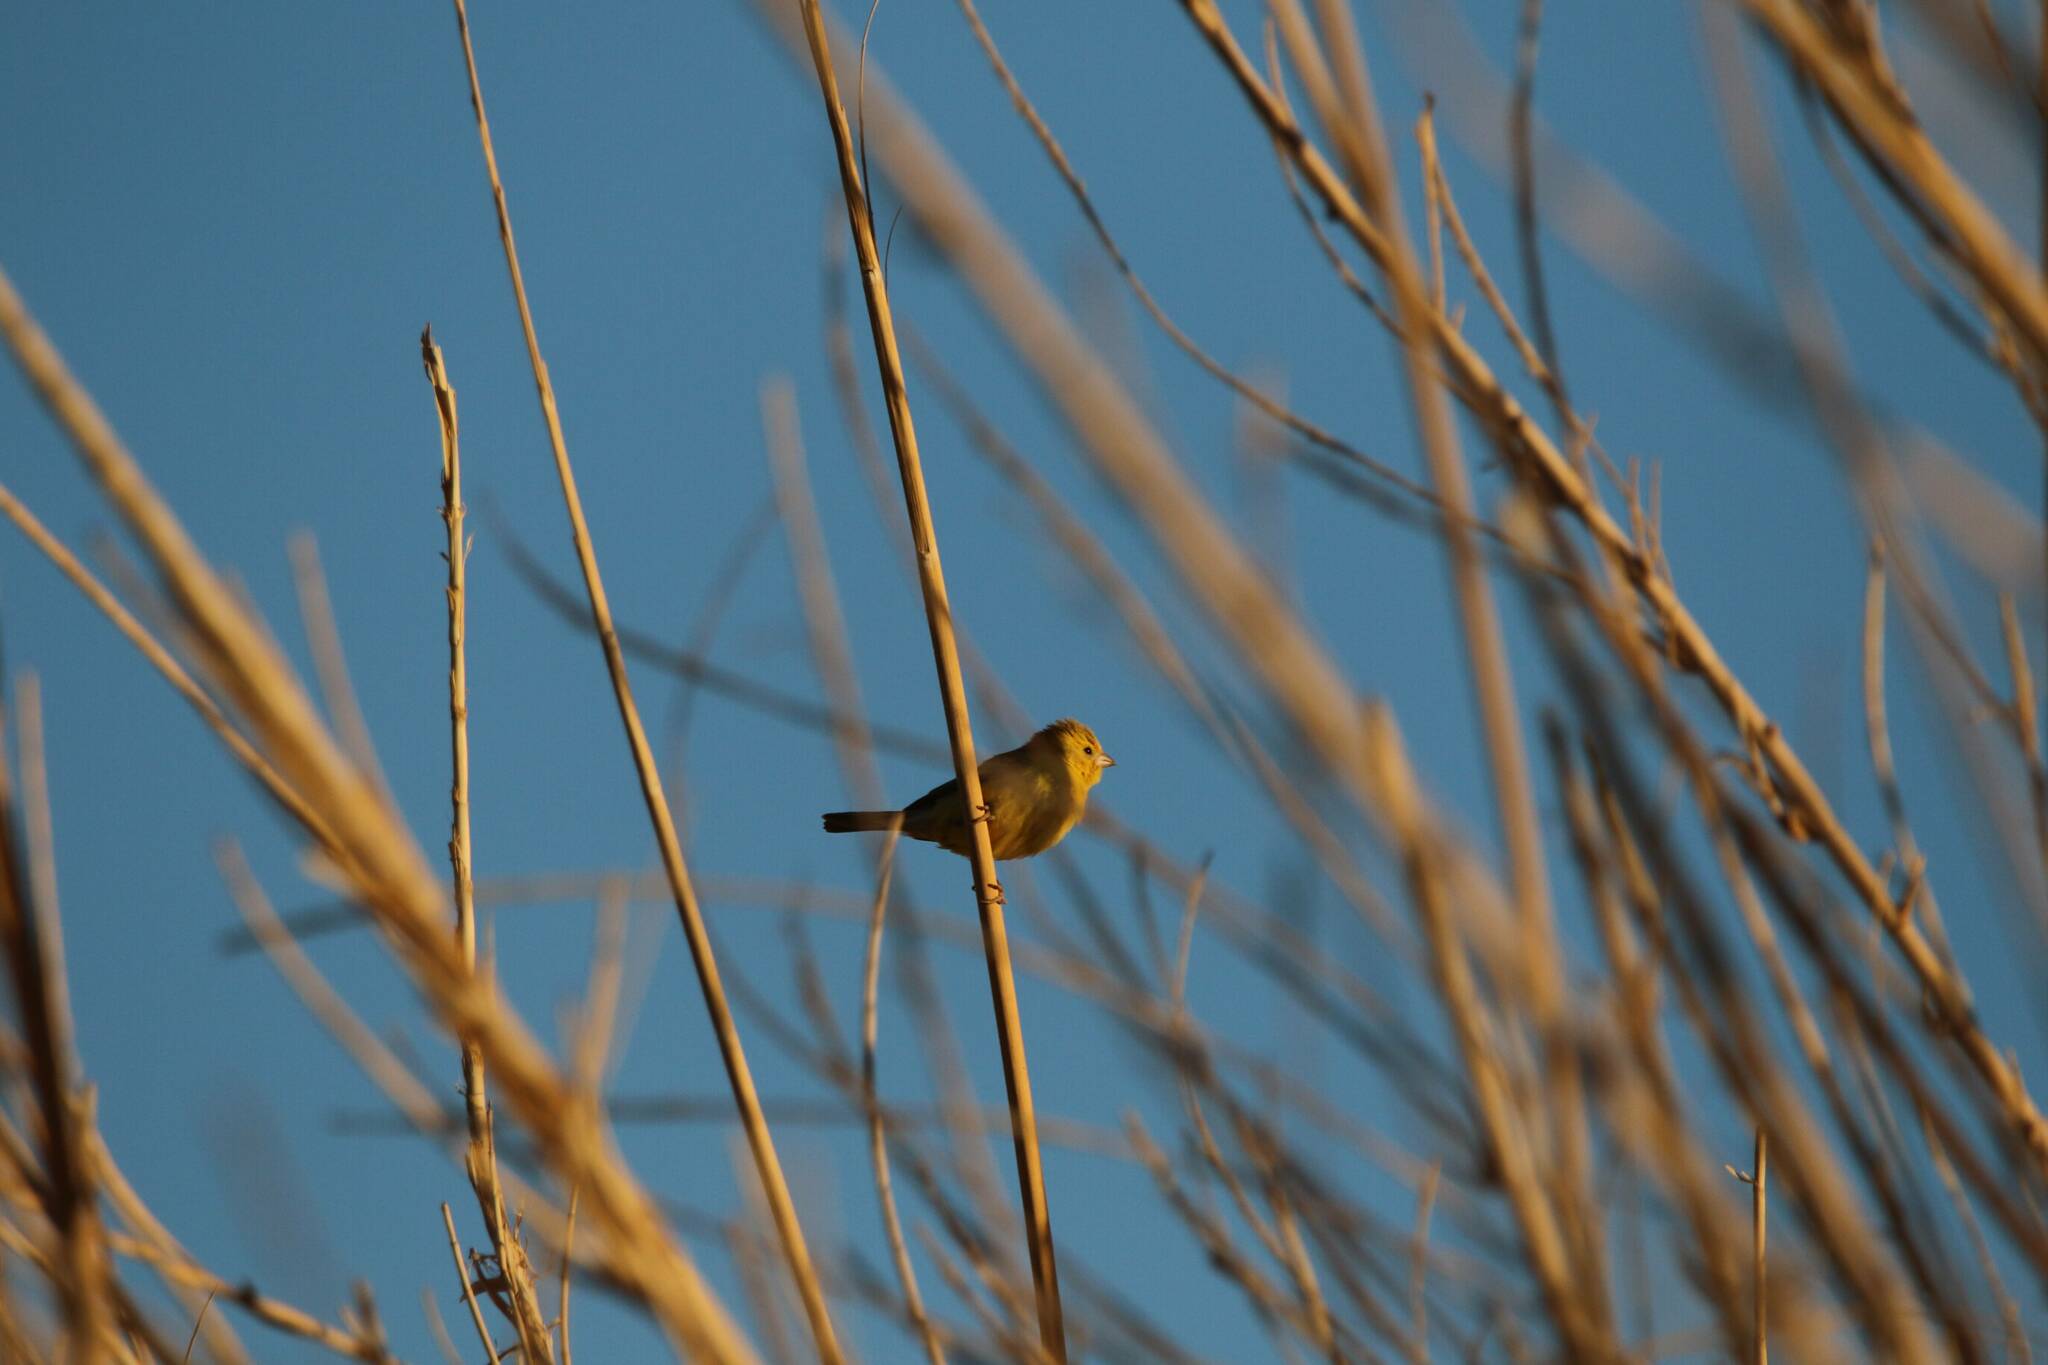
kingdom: Animalia
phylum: Chordata
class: Aves
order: Passeriformes
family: Estrildidae
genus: Euodice
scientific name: Euodice cantans
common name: African silverbill
